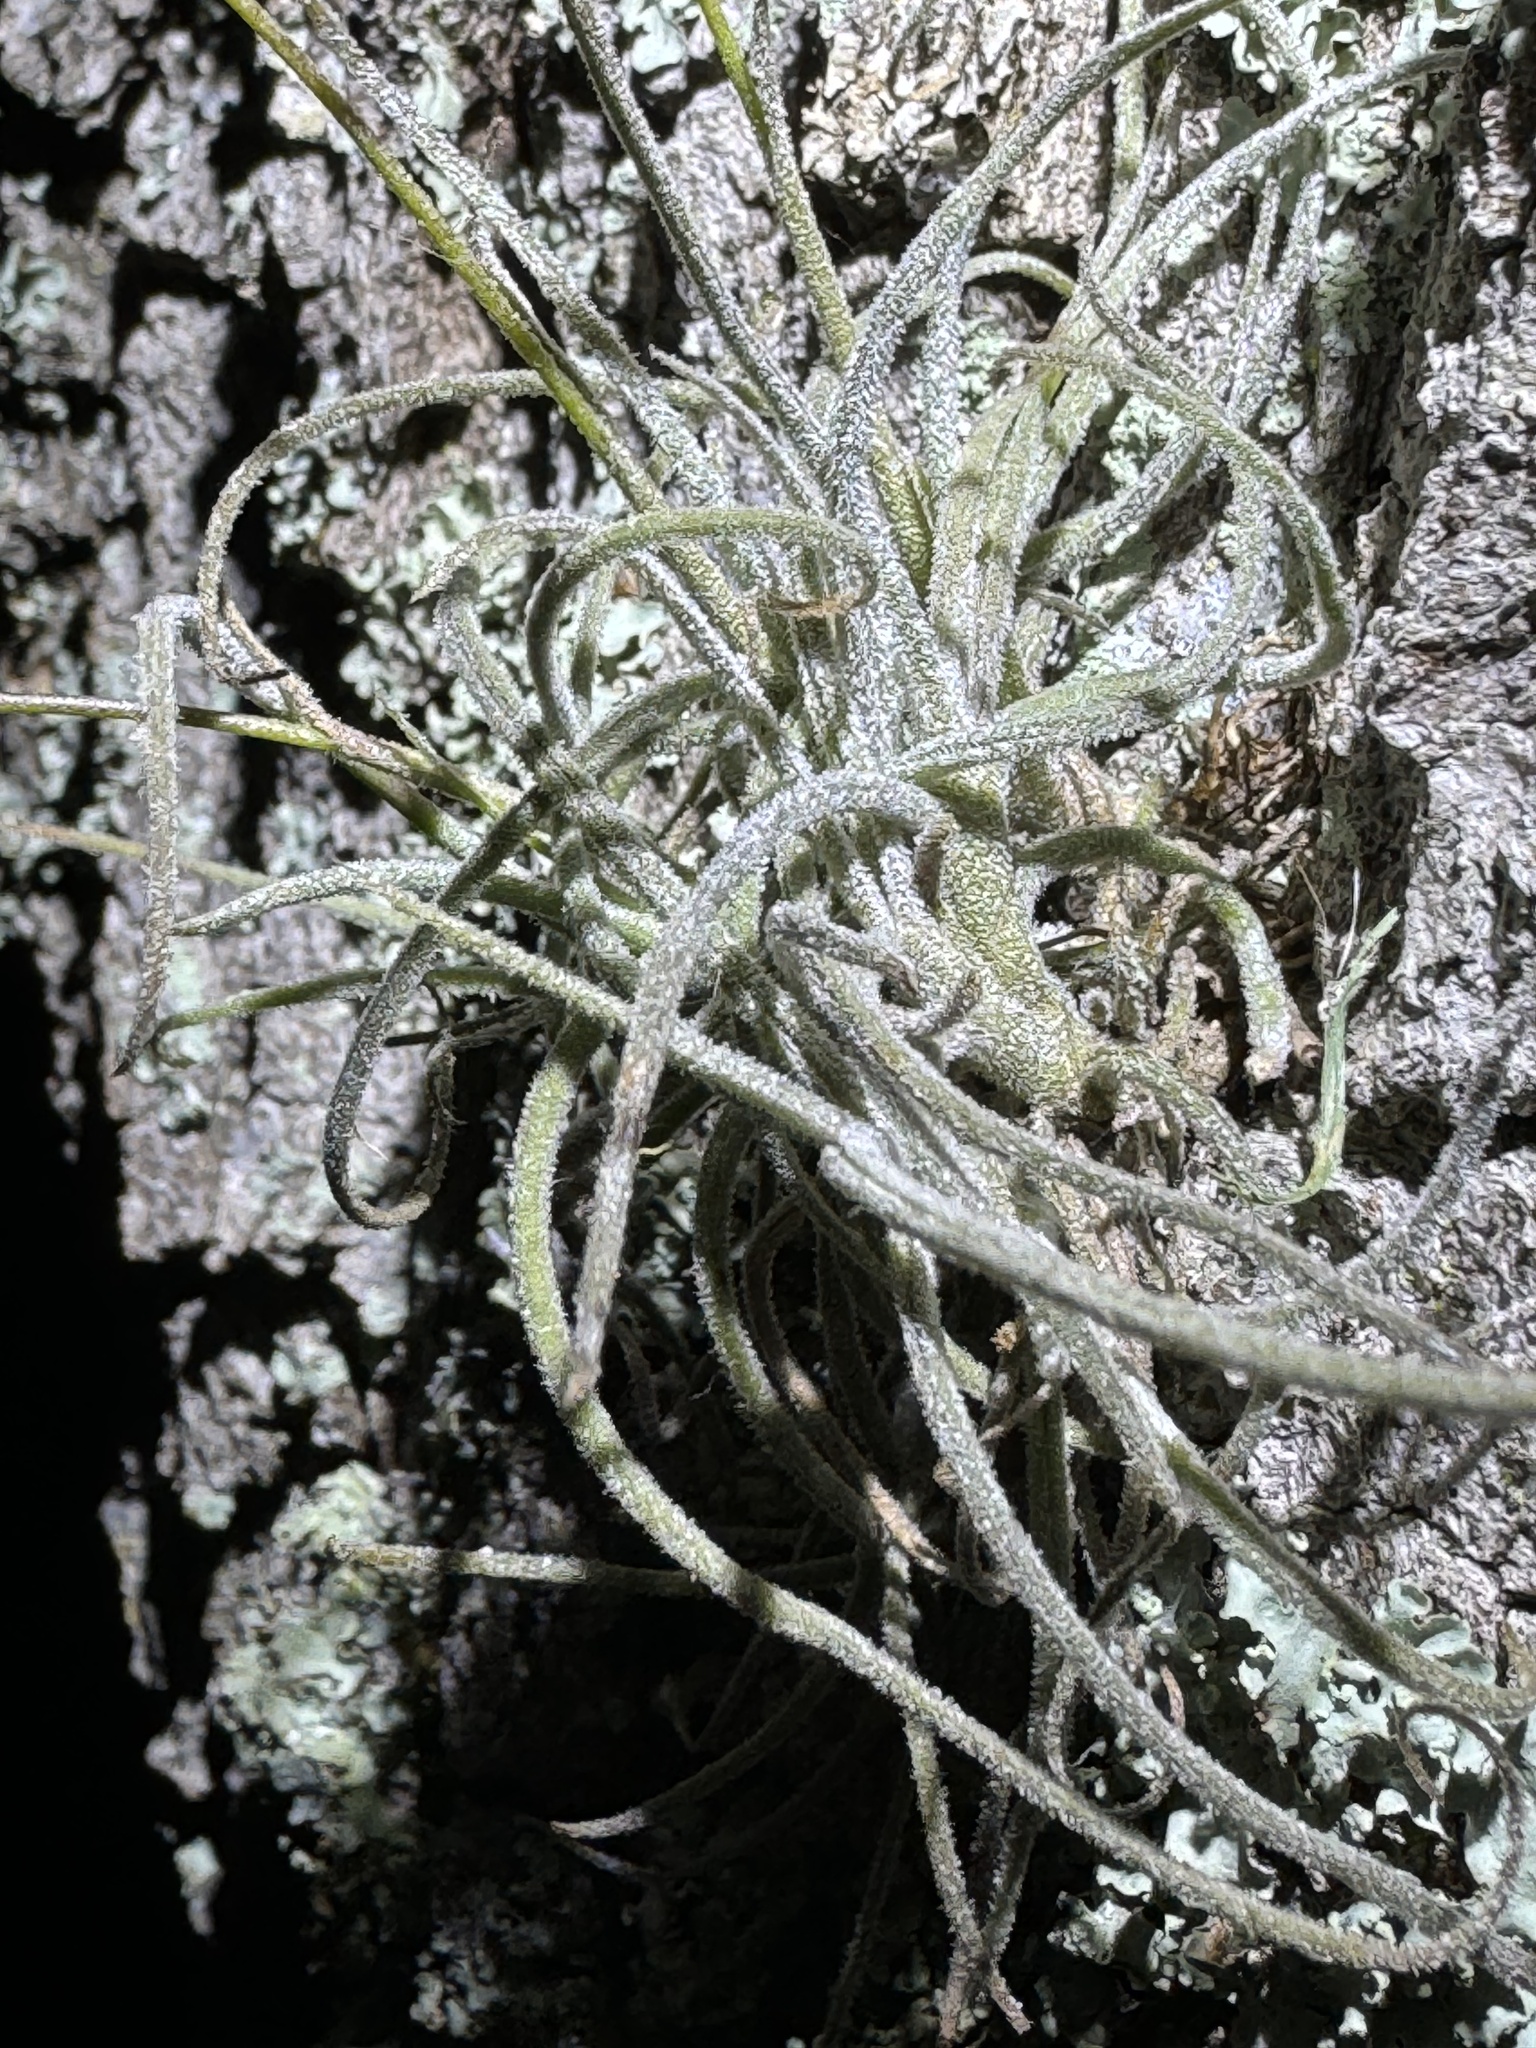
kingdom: Plantae
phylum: Tracheophyta
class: Liliopsida
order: Poales
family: Bromeliaceae
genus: Tillandsia
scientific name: Tillandsia recurvata
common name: Small ballmoss
